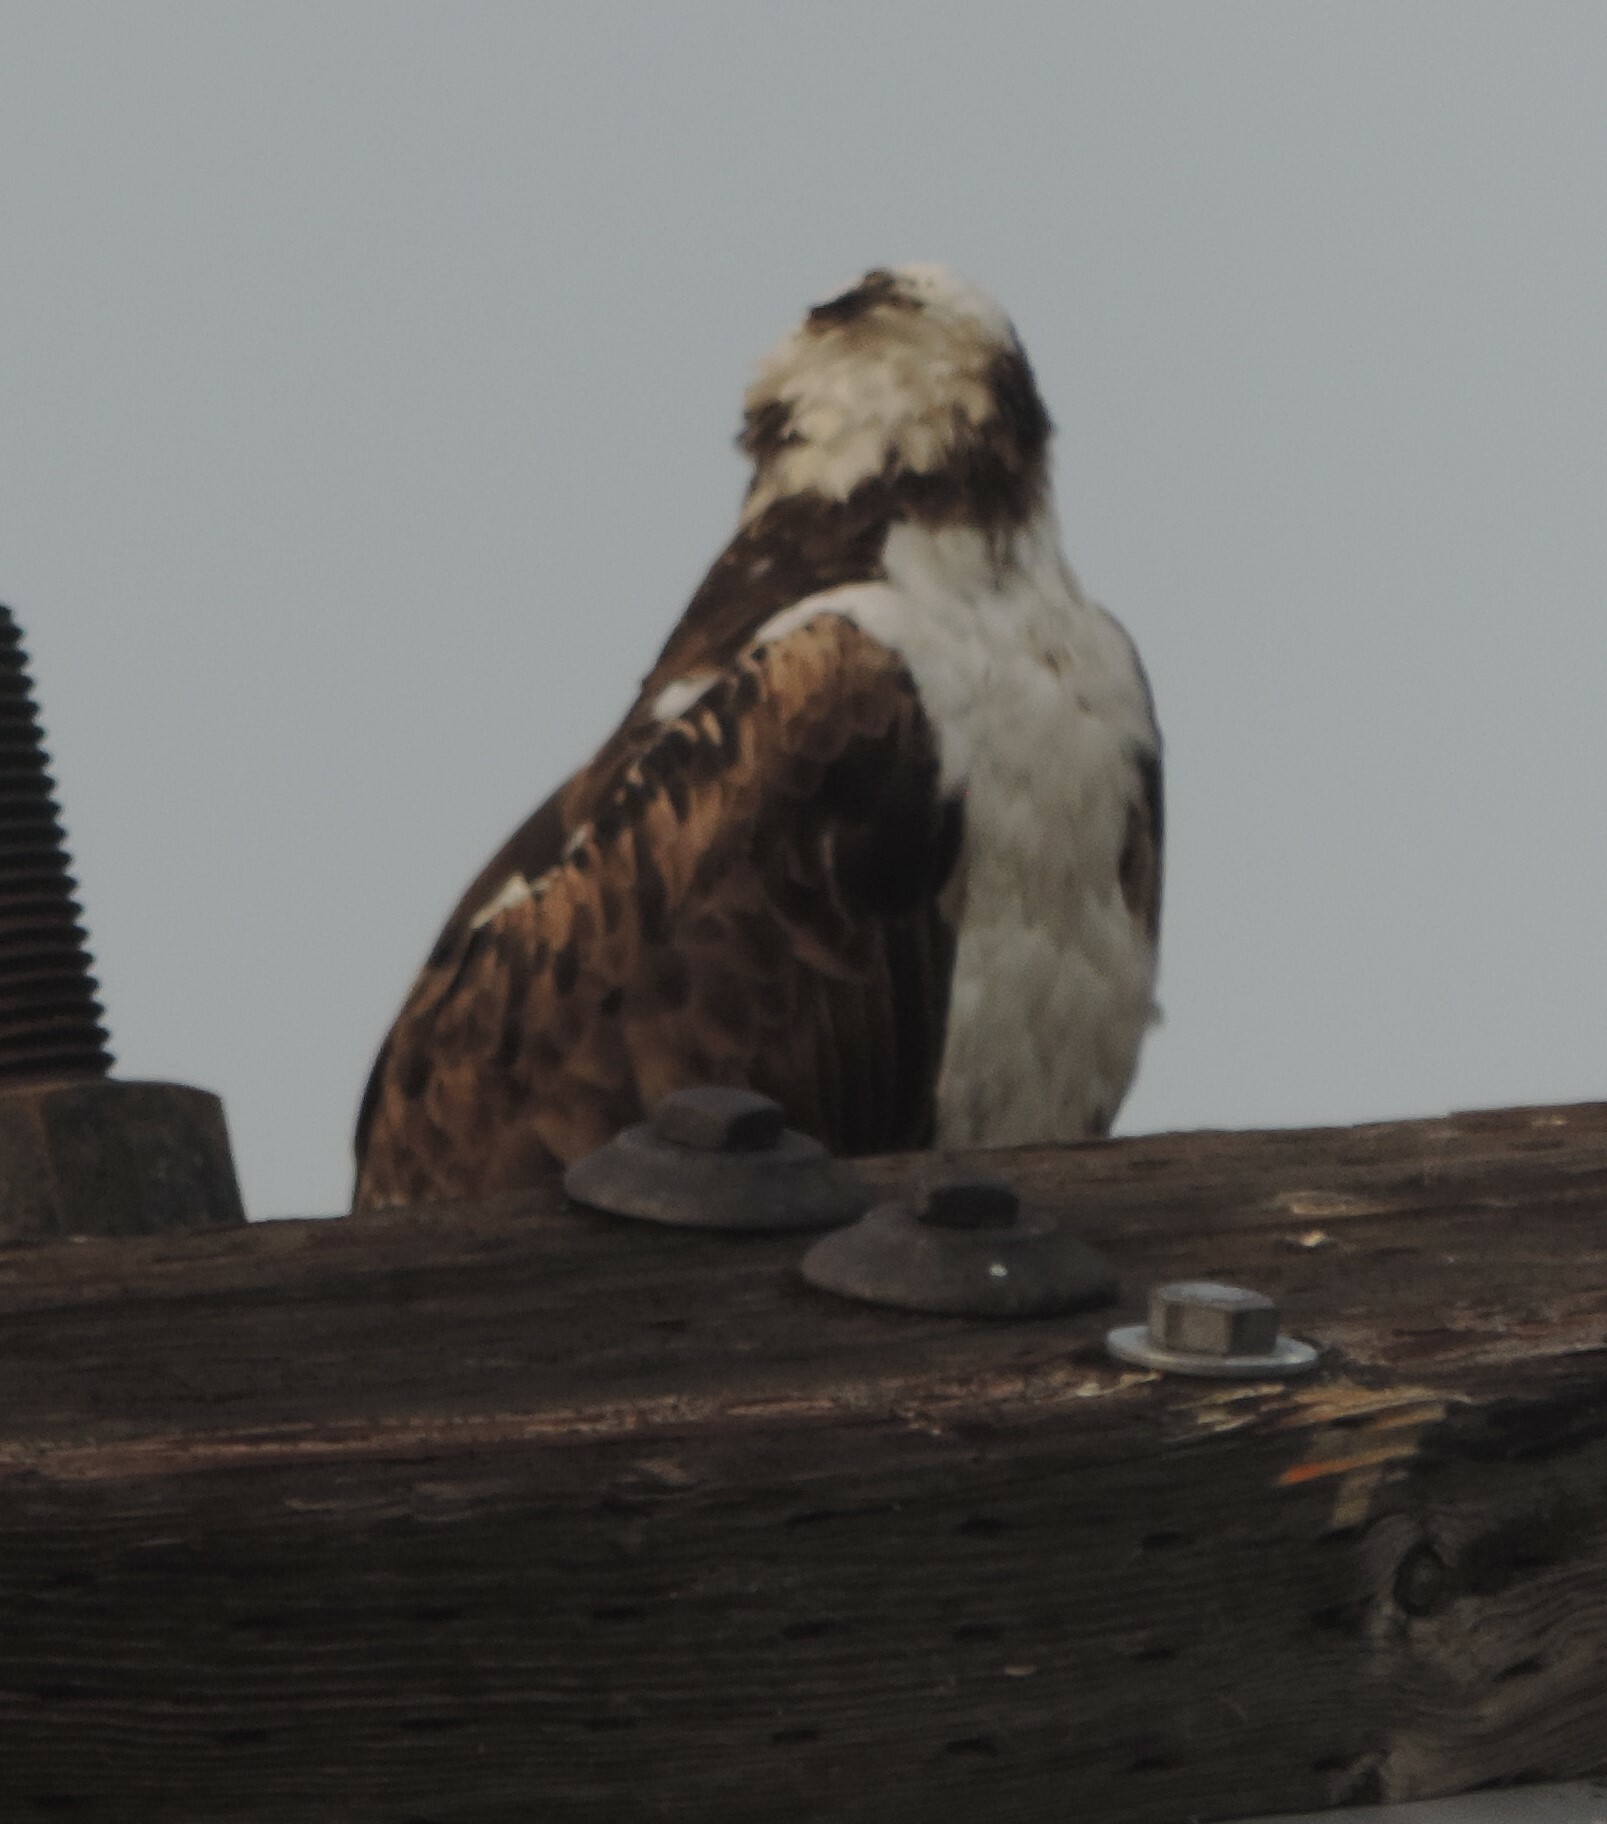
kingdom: Animalia
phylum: Chordata
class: Aves
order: Accipitriformes
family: Pandionidae
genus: Pandion
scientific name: Pandion haliaetus
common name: Osprey
